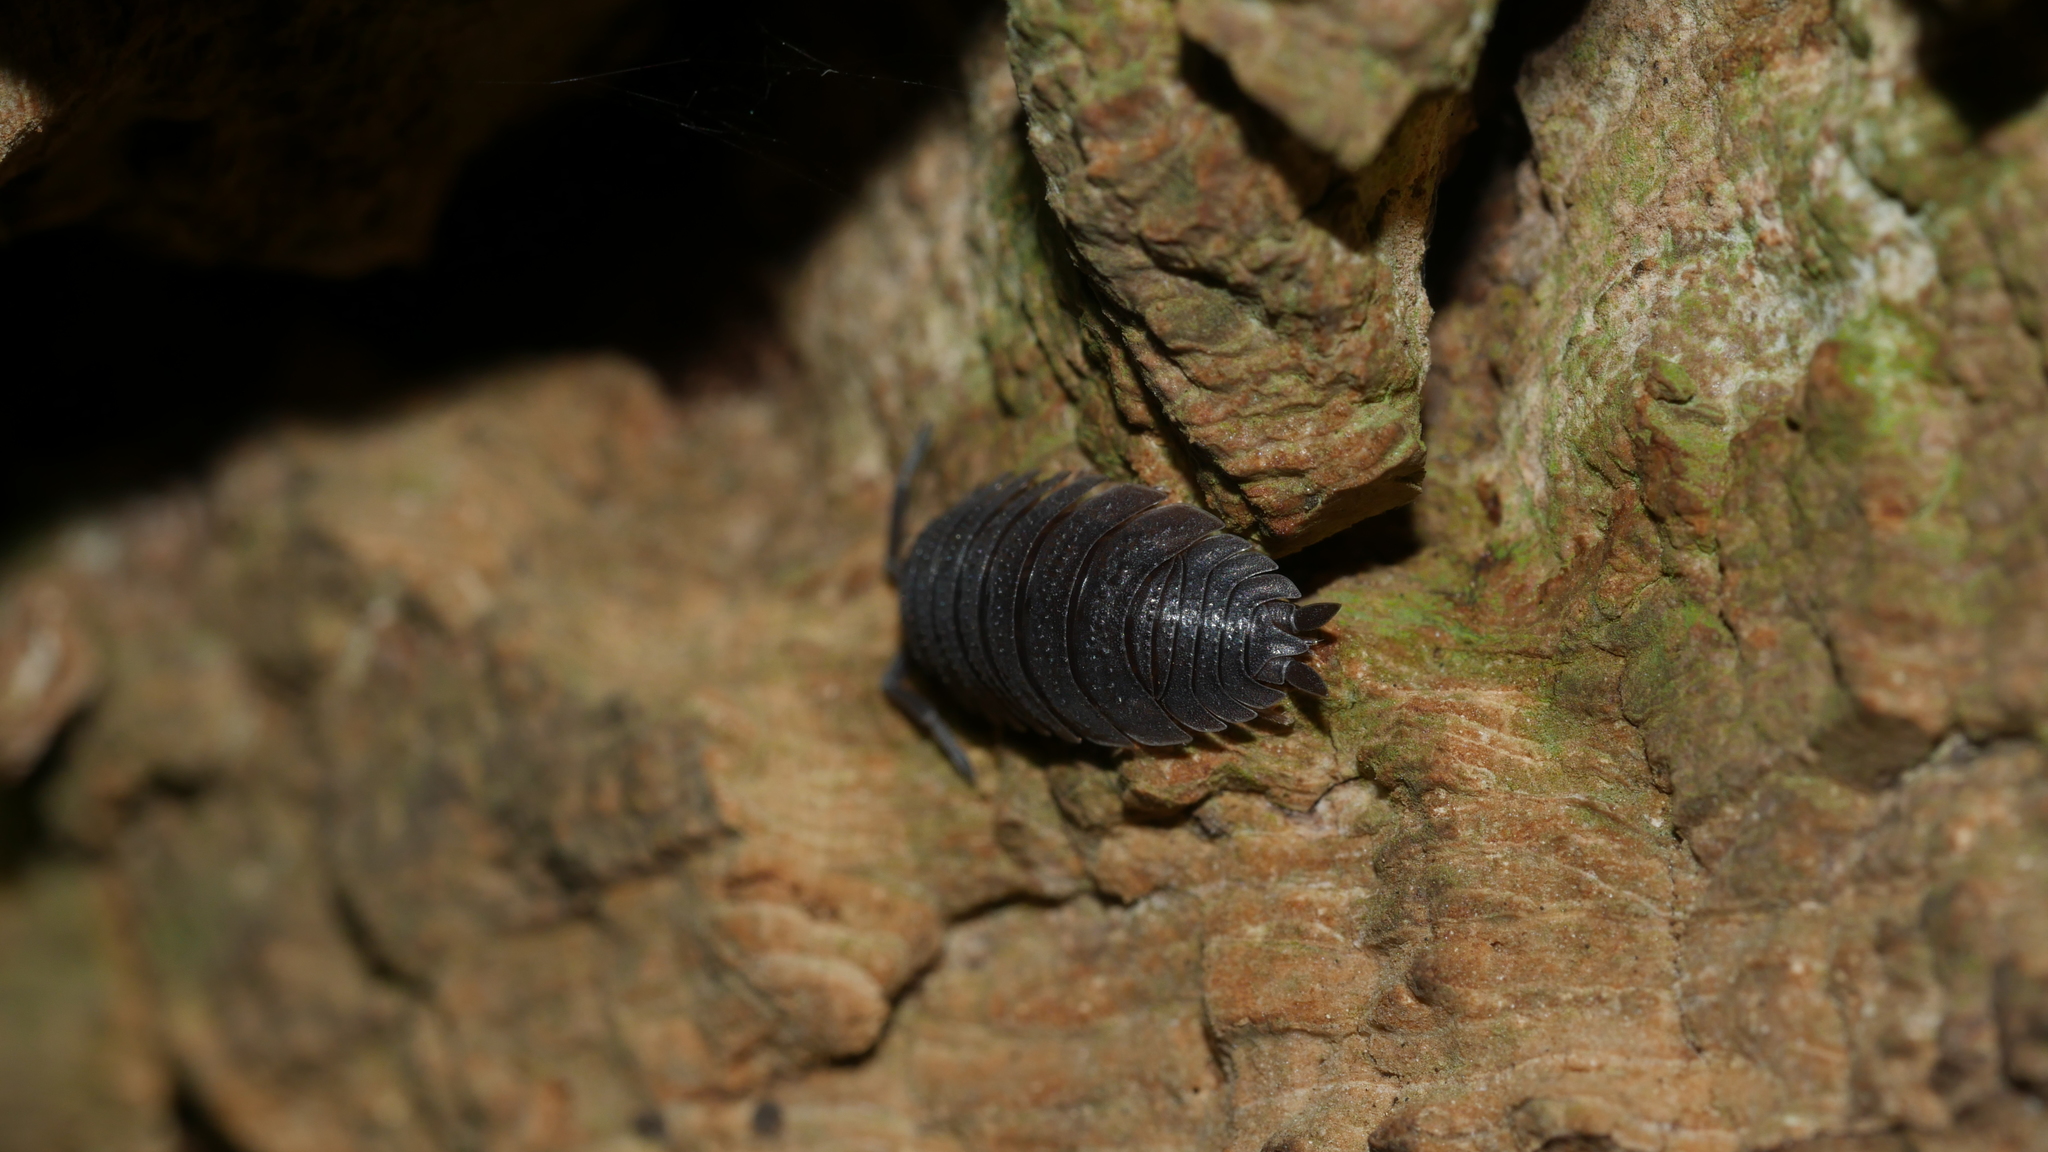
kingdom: Animalia
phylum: Arthropoda
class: Malacostraca
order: Isopoda
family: Porcellionidae
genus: Porcellio
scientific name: Porcellio scaber
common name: Common rough woodlouse
